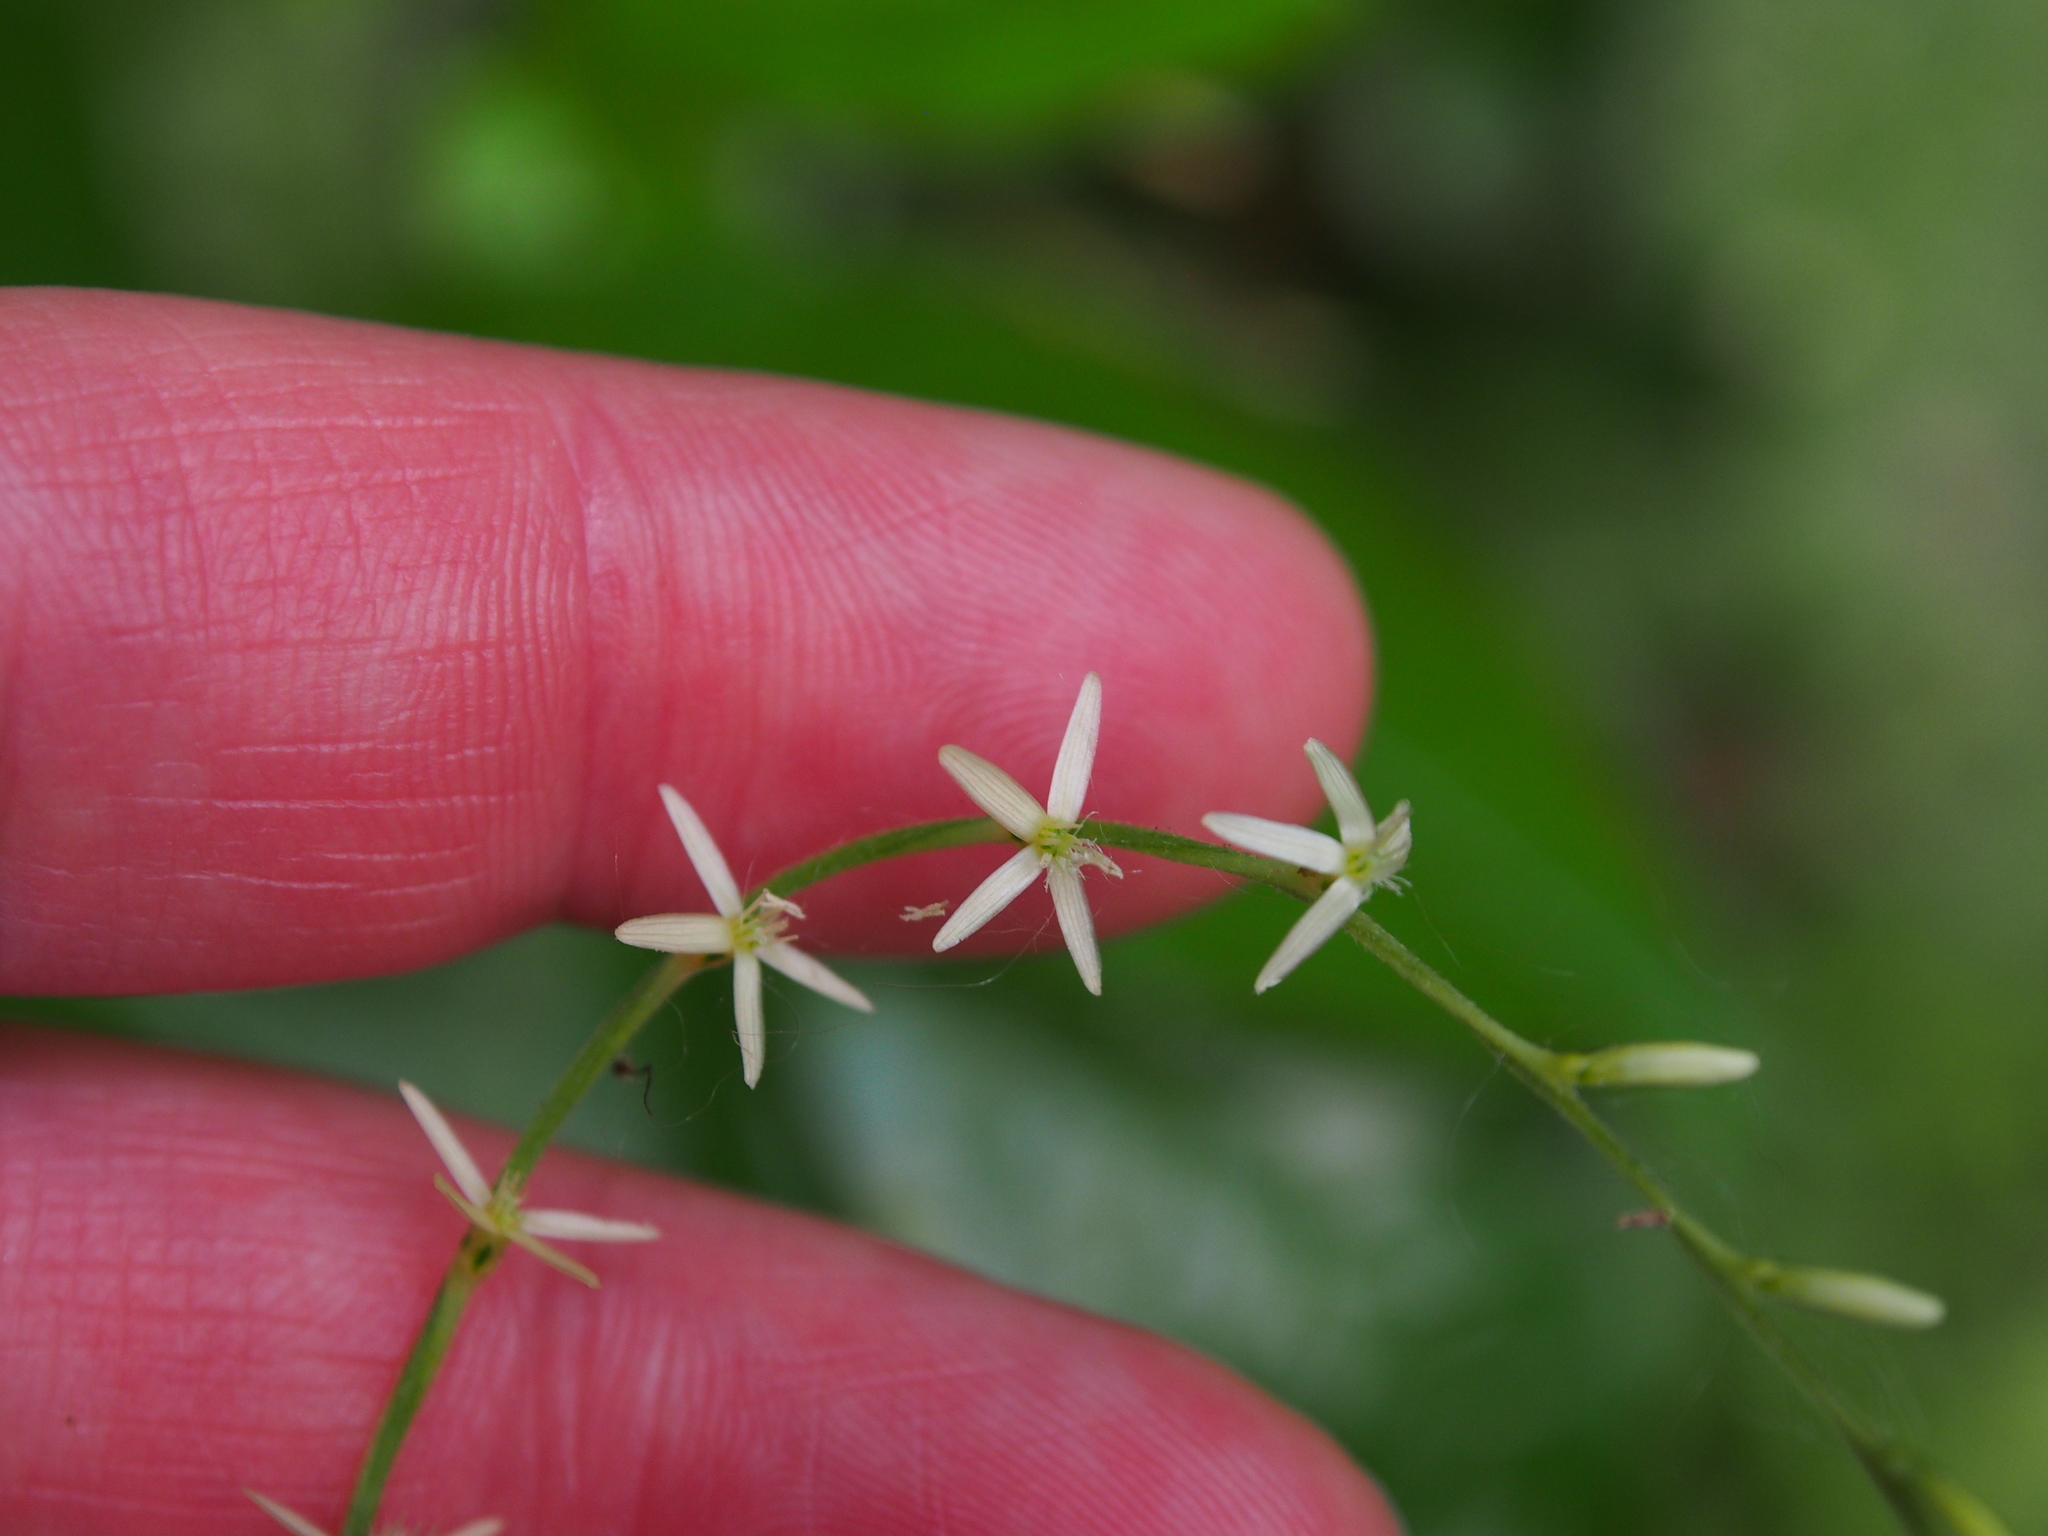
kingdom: Plantae
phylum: Tracheophyta
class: Magnoliopsida
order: Caryophyllales
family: Phytolaccaceae
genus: Petiveria
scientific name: Petiveria alliacea
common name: Garlicweed
